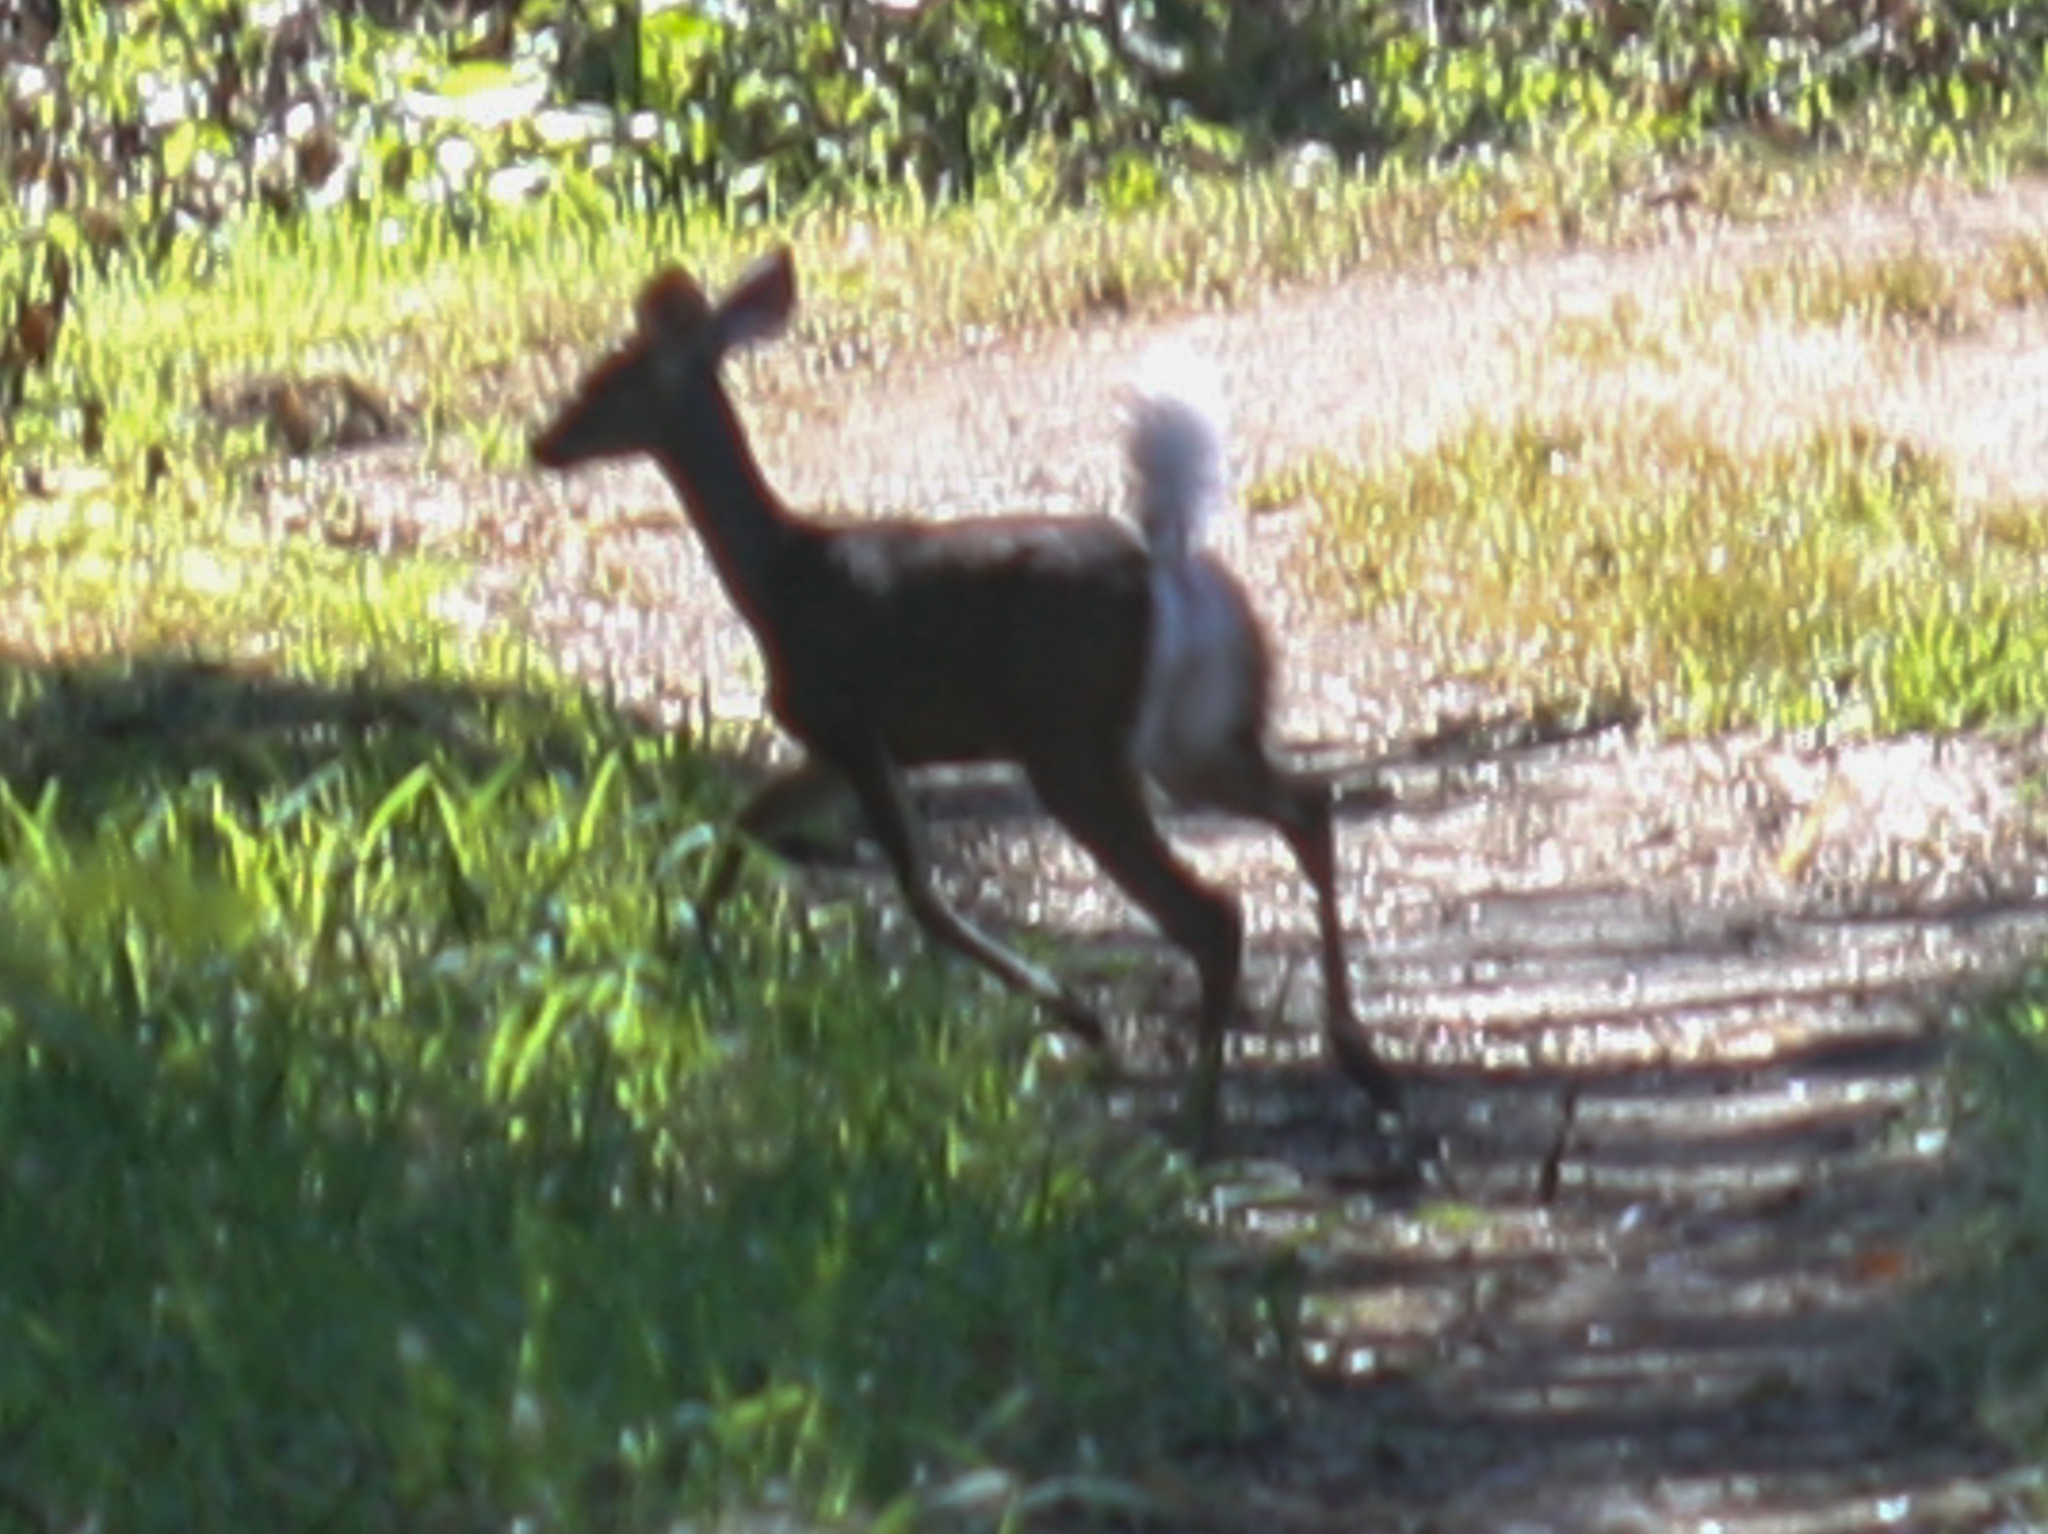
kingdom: Animalia
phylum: Chordata
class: Mammalia
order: Artiodactyla
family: Cervidae
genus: Odocoileus
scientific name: Odocoileus virginianus
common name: White-tailed deer
